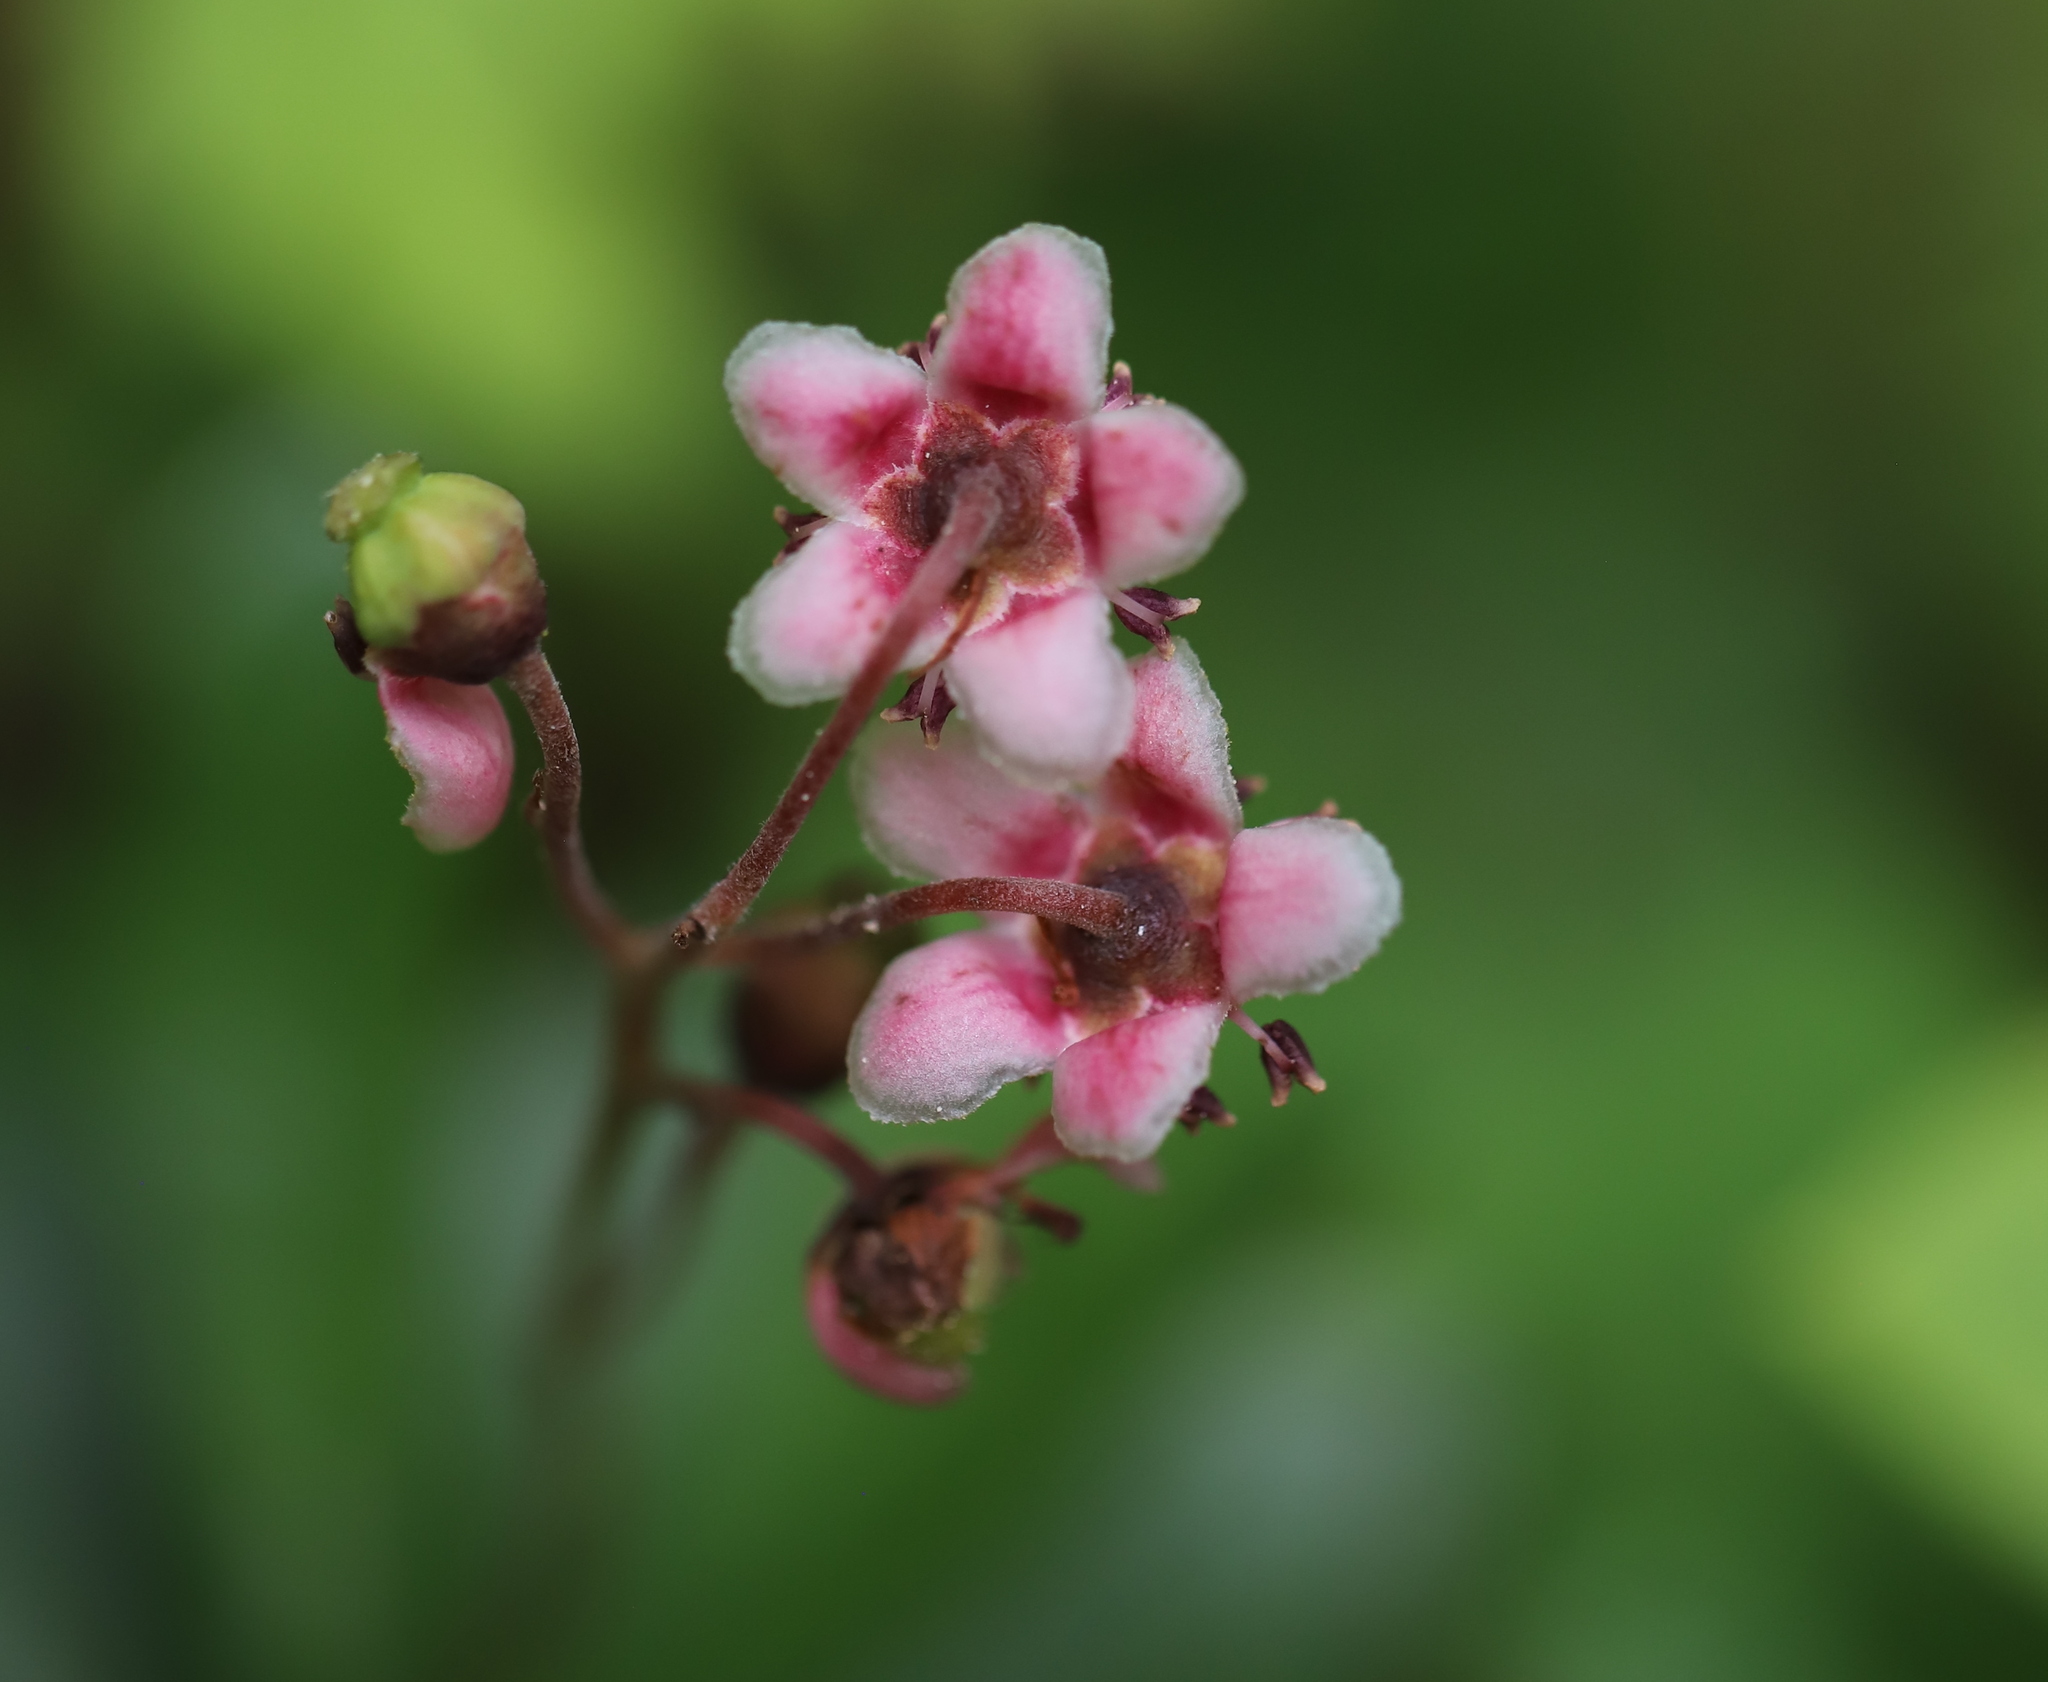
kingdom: Plantae
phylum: Tracheophyta
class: Magnoliopsida
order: Ericales
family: Ericaceae
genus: Chimaphila
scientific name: Chimaphila umbellata
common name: Pipsissewa
